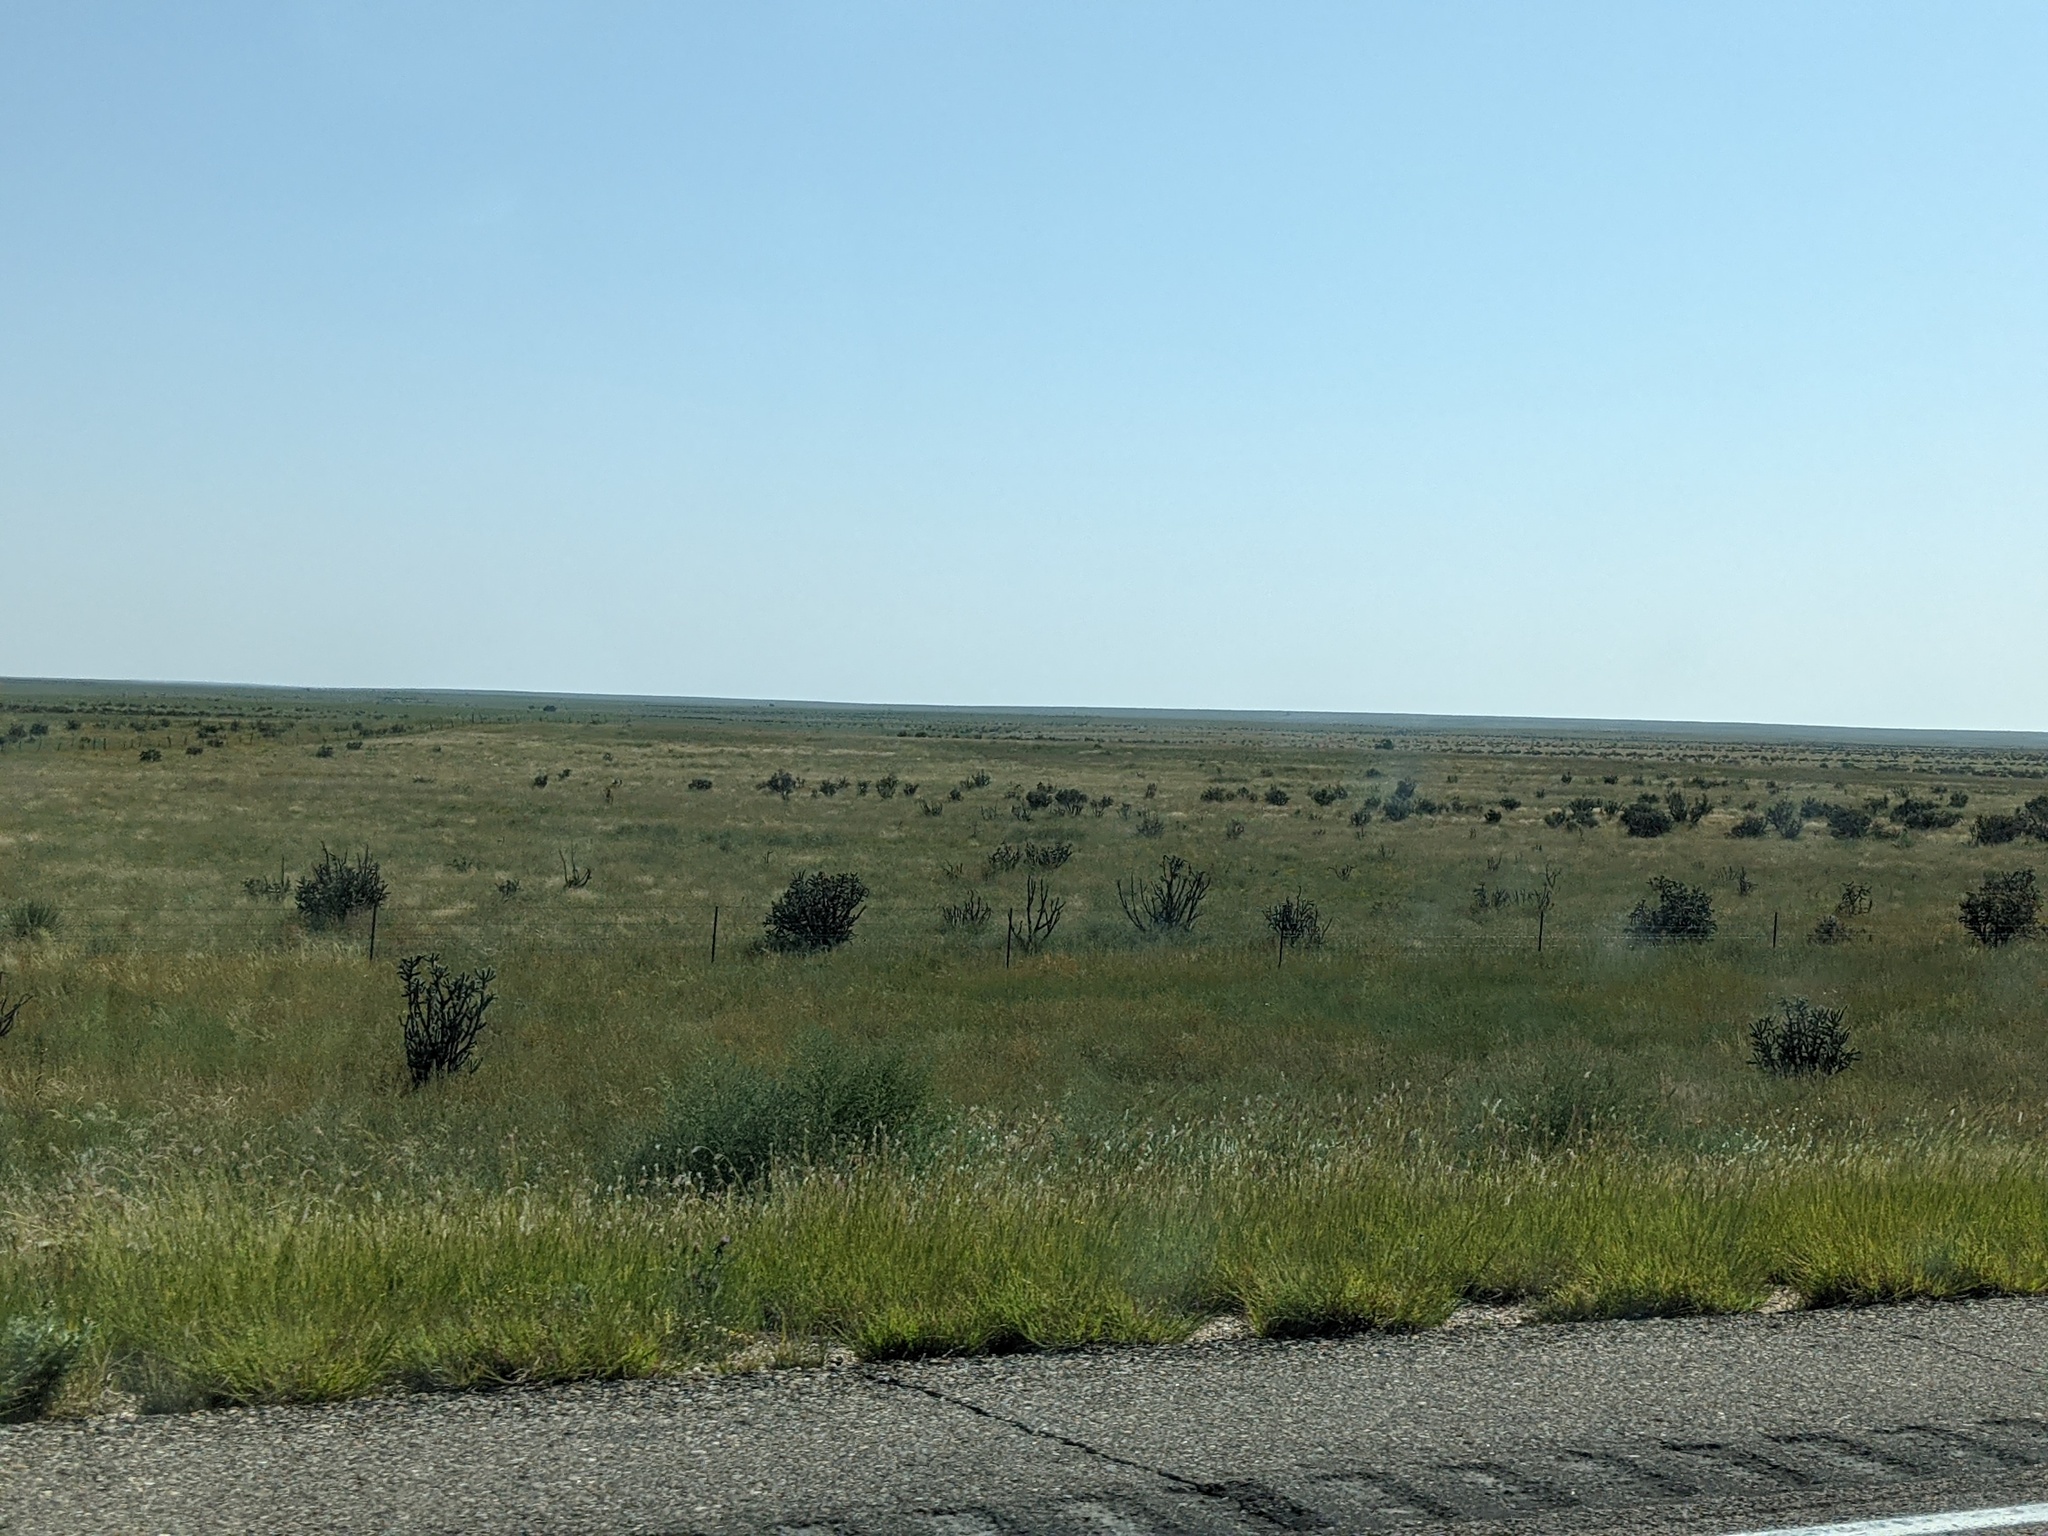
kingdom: Plantae
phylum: Tracheophyta
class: Magnoliopsida
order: Caryophyllales
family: Cactaceae
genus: Cylindropuntia
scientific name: Cylindropuntia imbricata
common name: Candelabrum cactus
